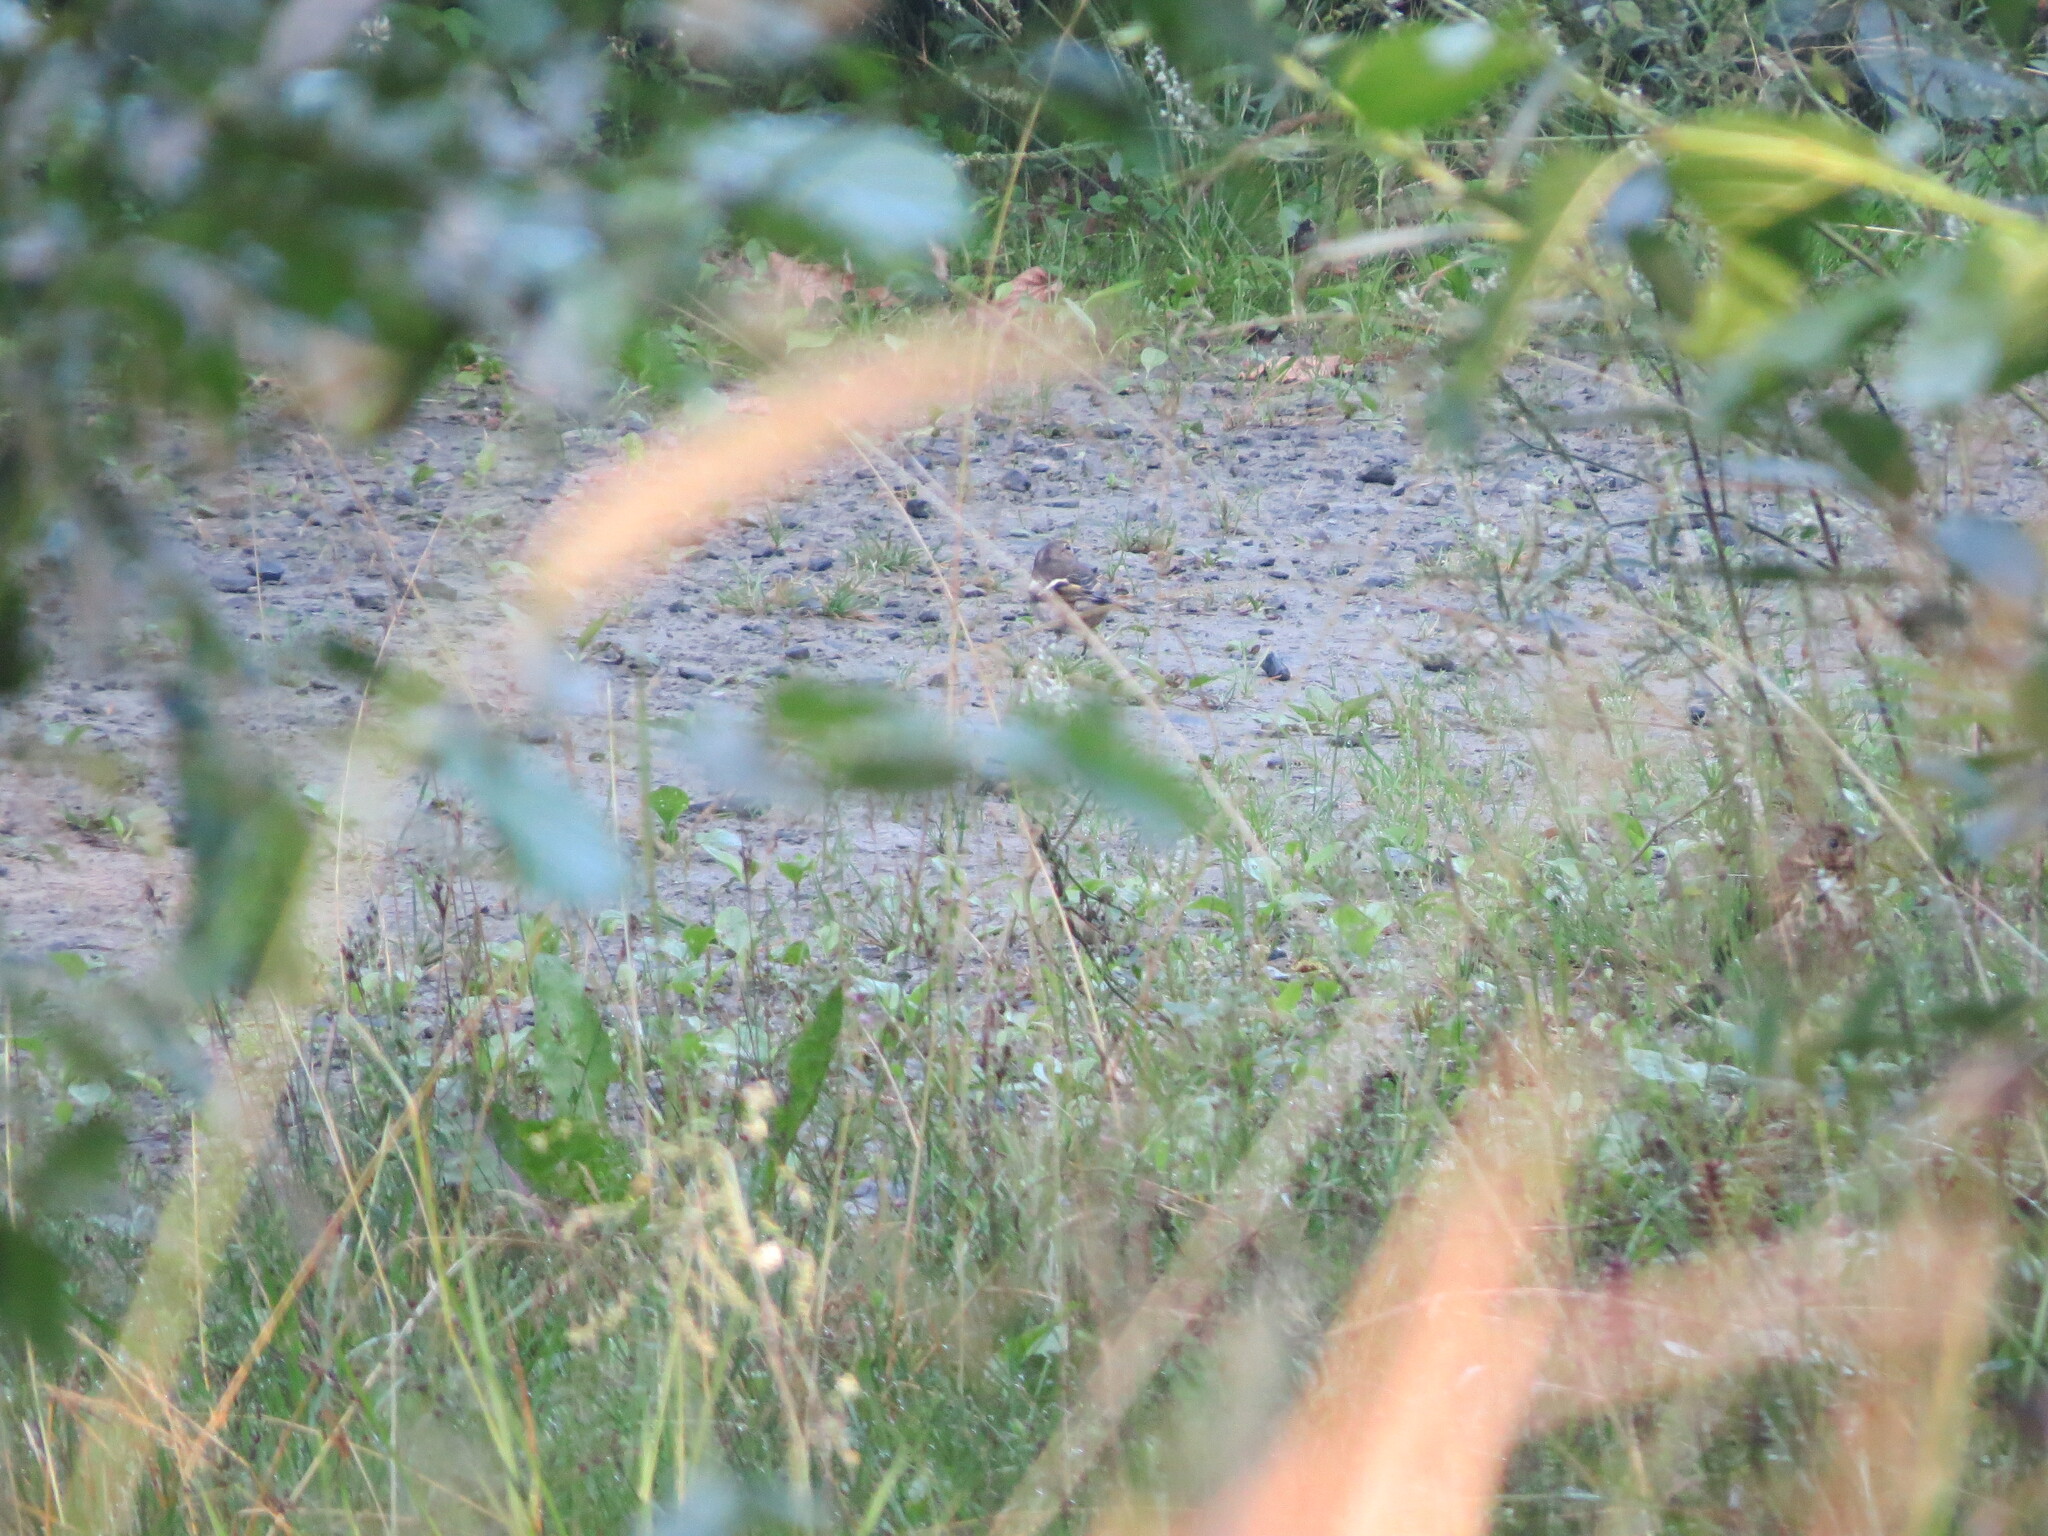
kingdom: Animalia
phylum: Chordata
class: Aves
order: Passeriformes
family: Fringillidae
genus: Fringilla
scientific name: Fringilla coelebs
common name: Common chaffinch
